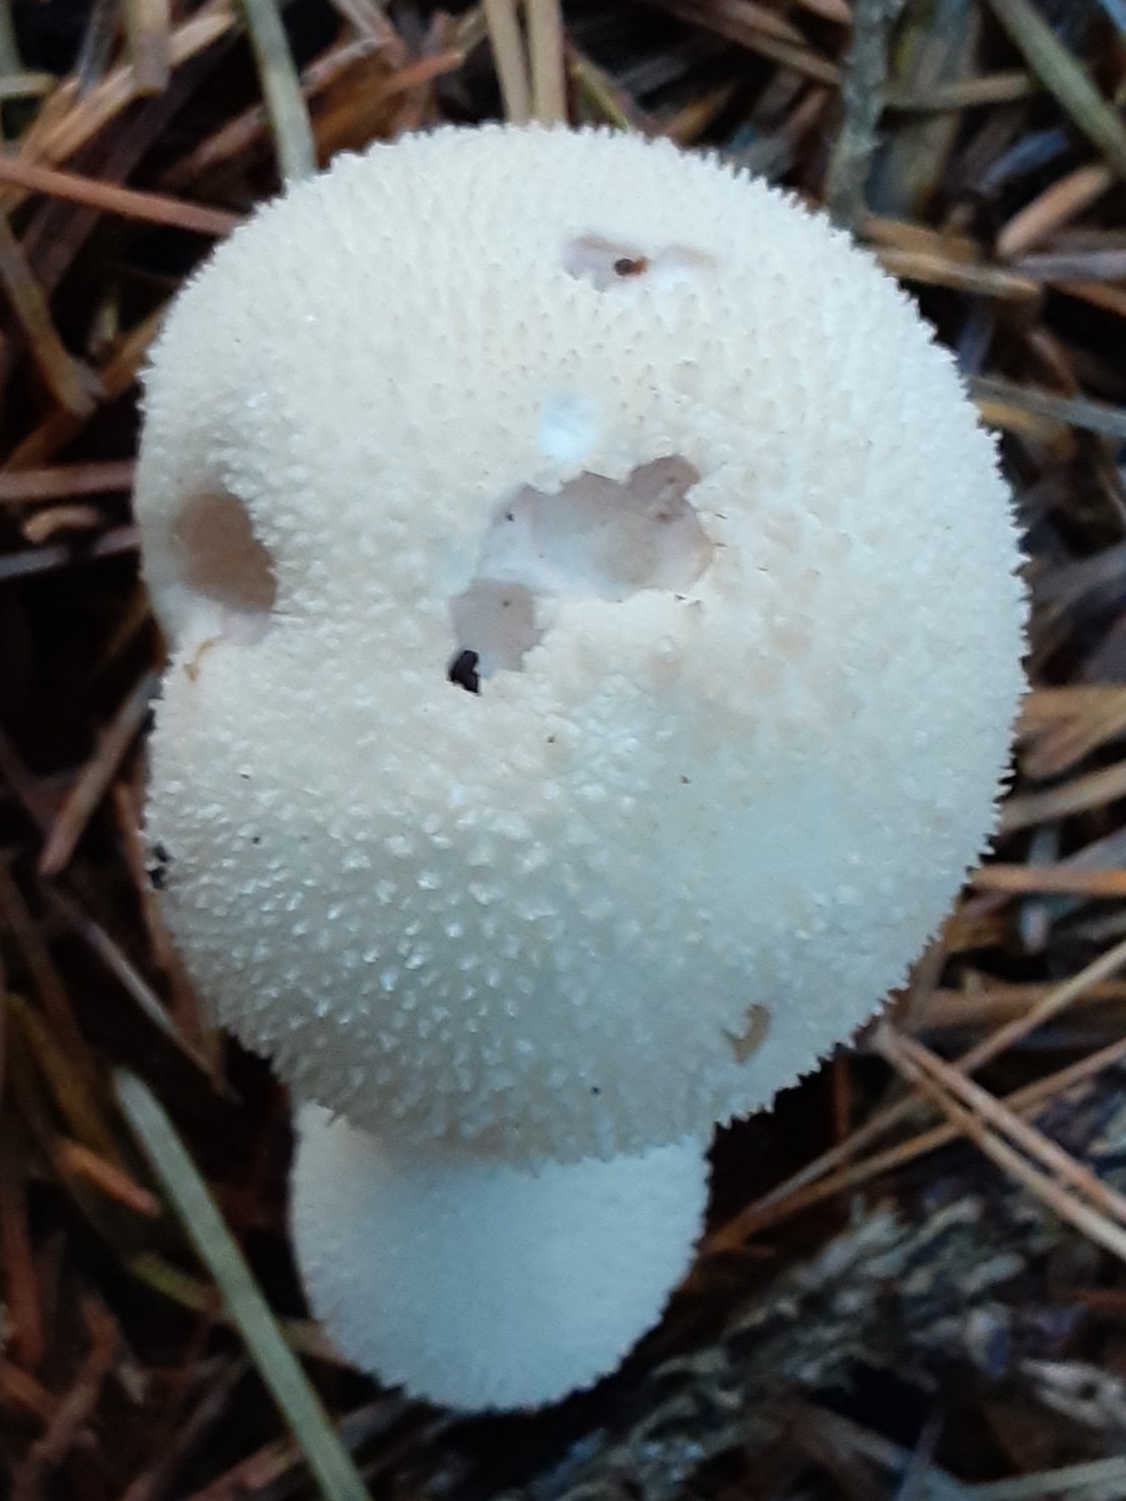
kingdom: Fungi
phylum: Basidiomycota
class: Agaricomycetes
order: Agaricales
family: Lycoperdaceae
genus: Lycoperdon
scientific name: Lycoperdon perlatum
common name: Common puffball
